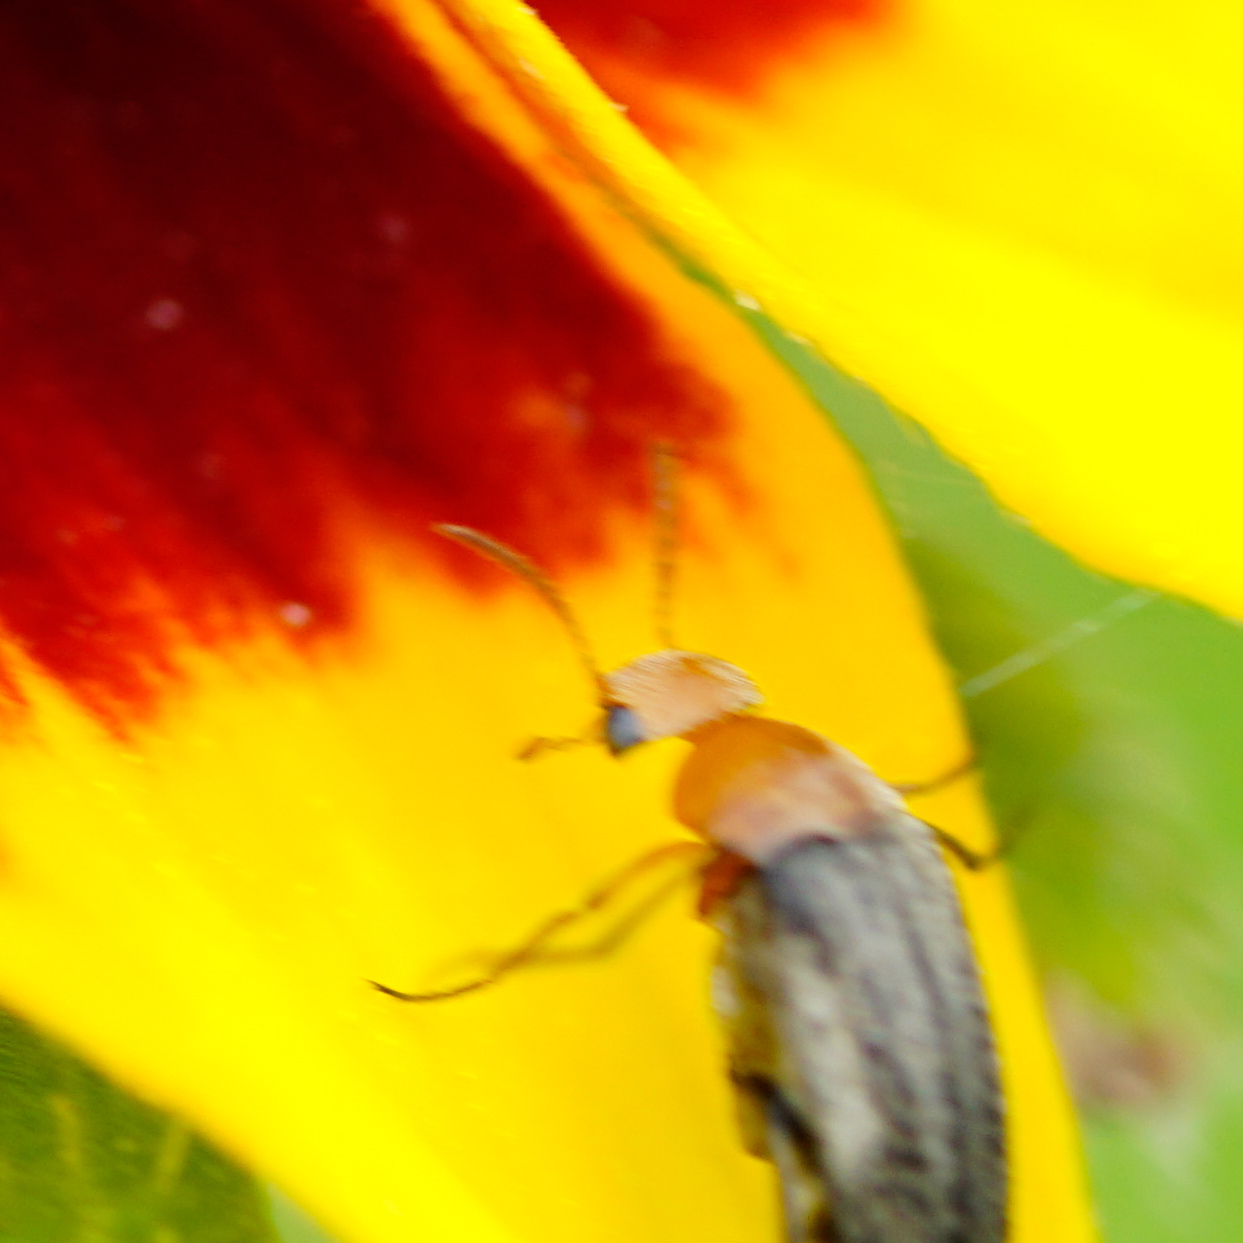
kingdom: Animalia
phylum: Arthropoda
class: Insecta
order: Coleoptera
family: Mordellidae
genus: Mordellistena
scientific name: Mordellistena comata
